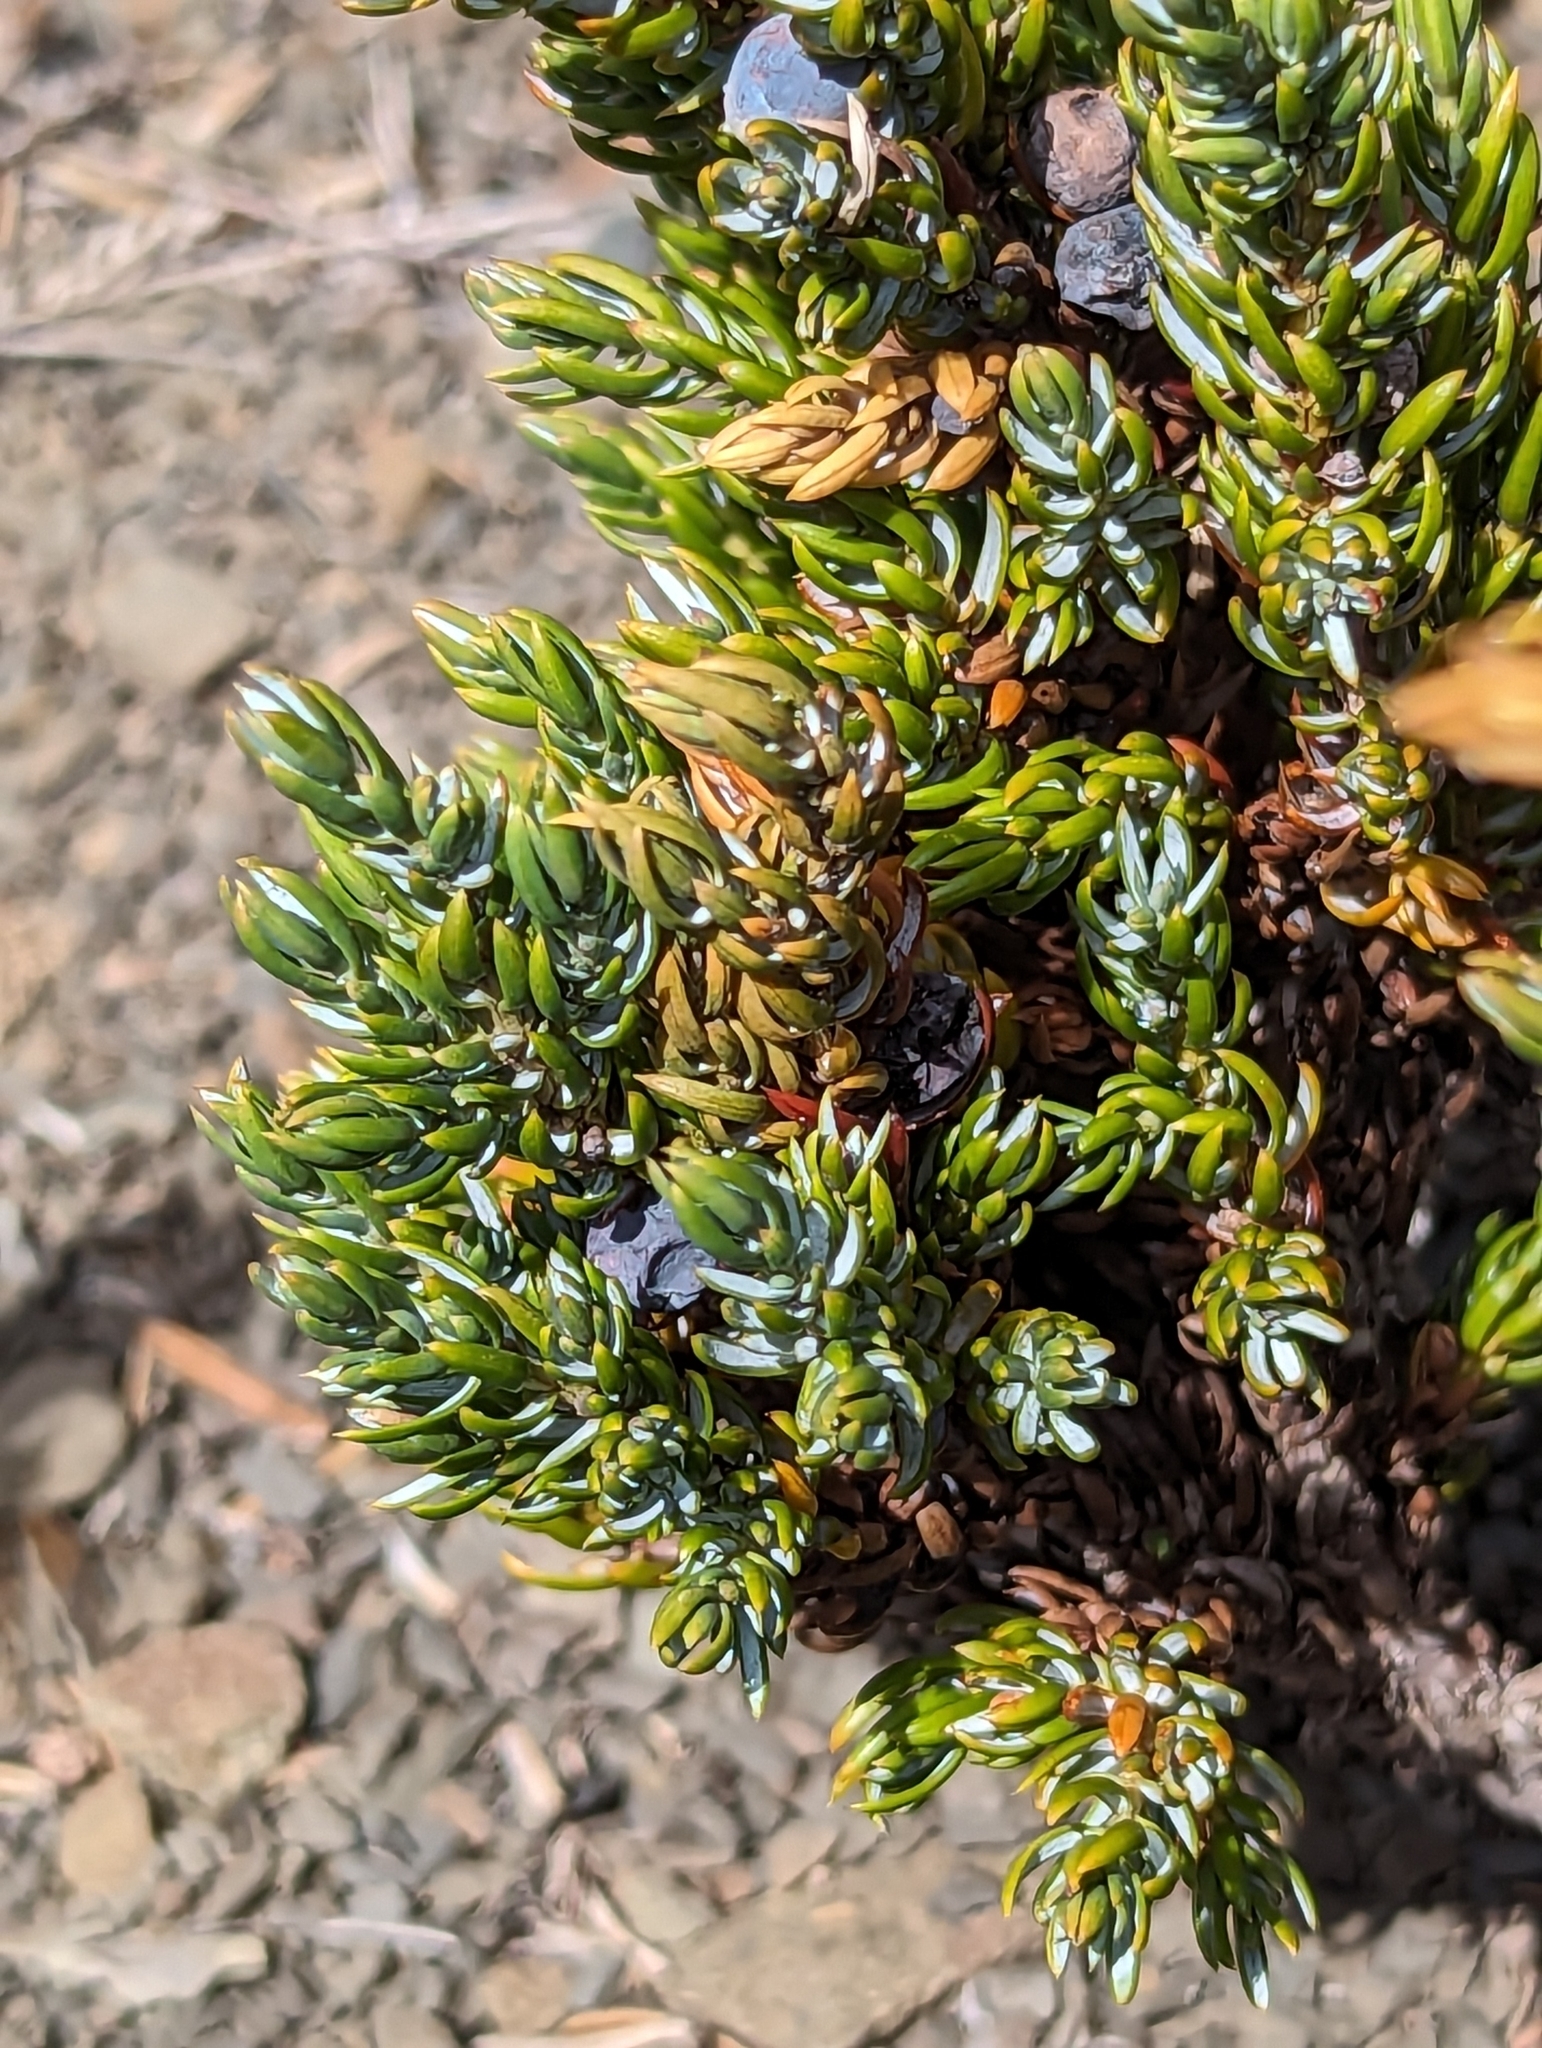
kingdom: Plantae
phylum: Tracheophyta
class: Pinopsida
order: Pinales
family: Cupressaceae
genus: Juniperus
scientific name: Juniperus communis
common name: Common juniper
